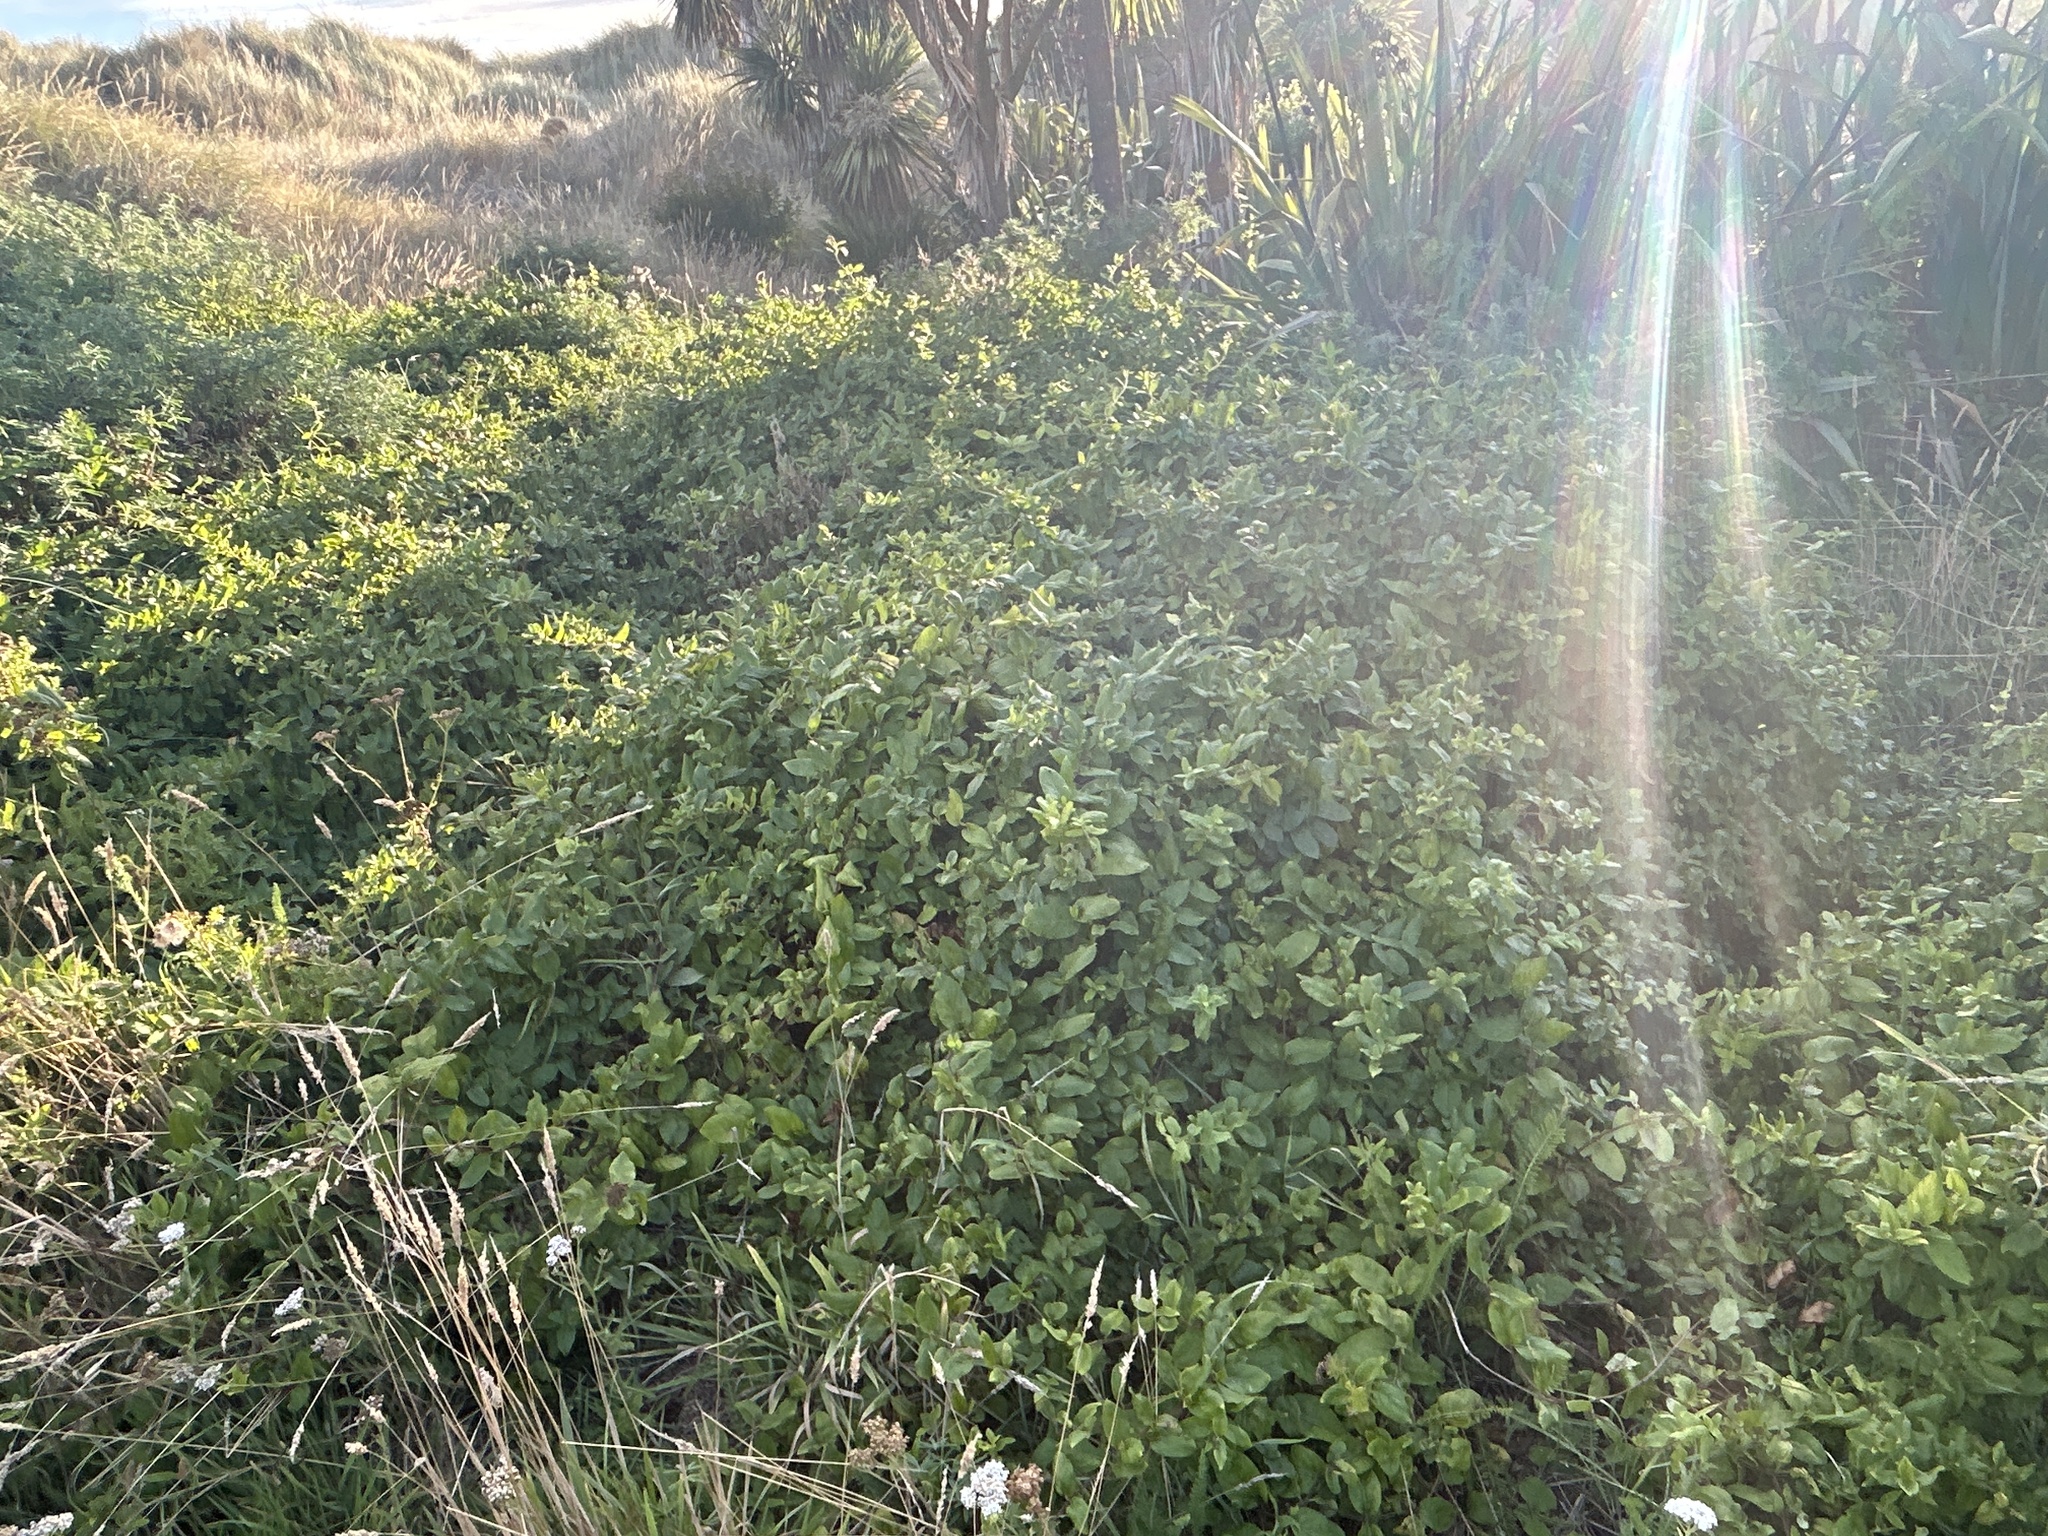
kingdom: Plantae
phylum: Tracheophyta
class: Magnoliopsida
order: Dipsacales
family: Caprifoliaceae
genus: Lonicera
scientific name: Lonicera japonica
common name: Japanese honeysuckle
